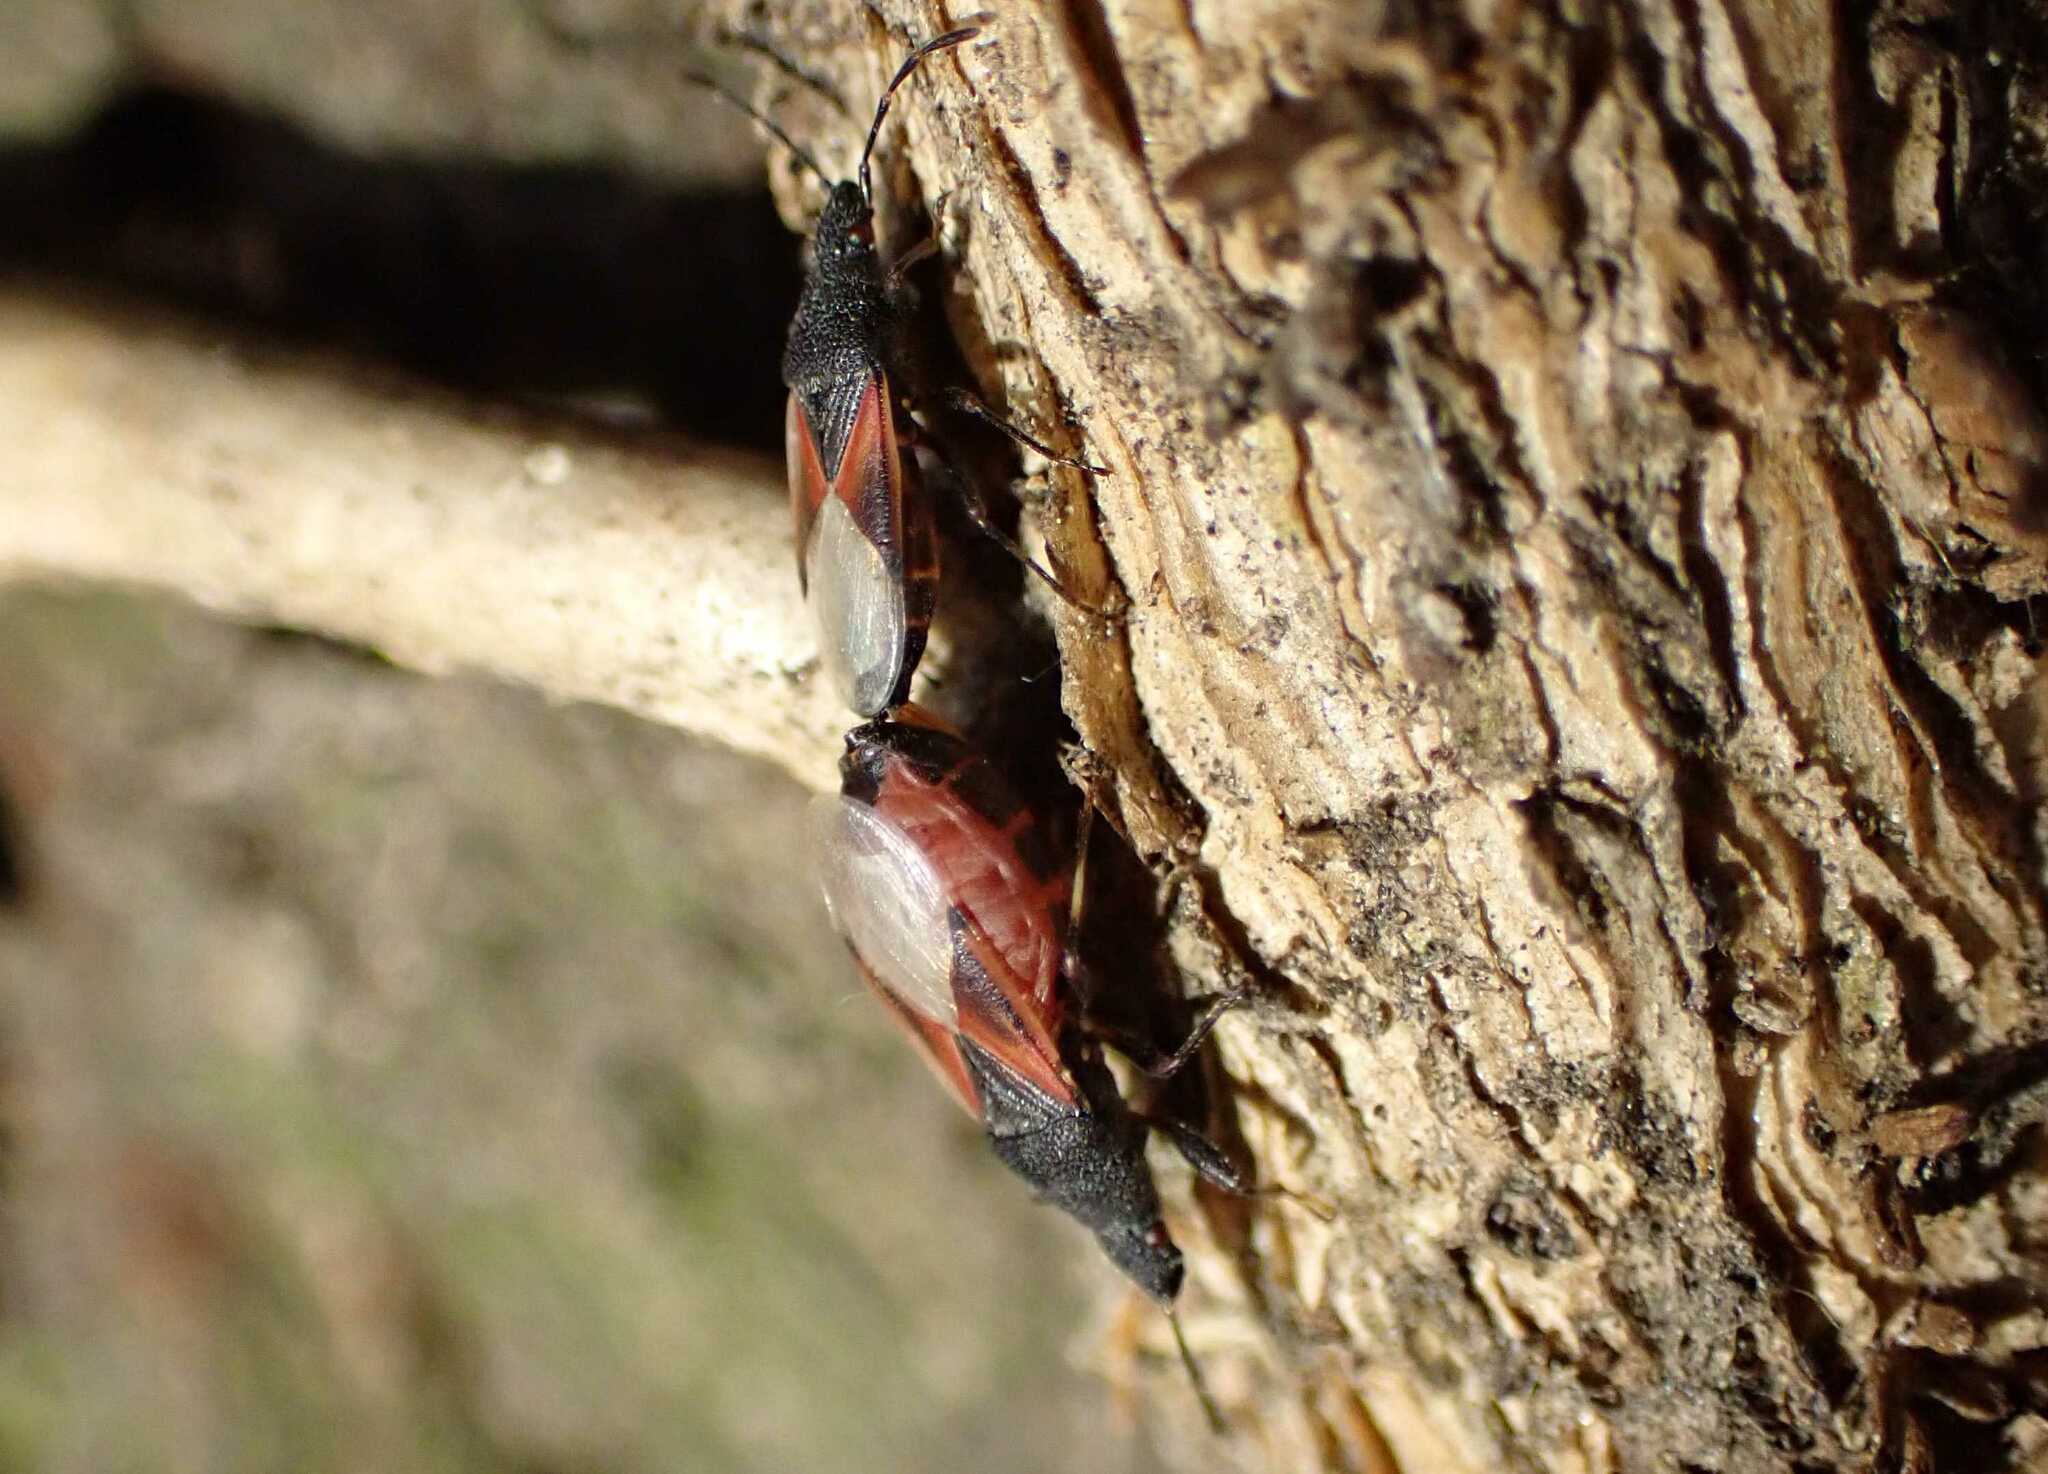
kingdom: Animalia
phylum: Arthropoda
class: Insecta
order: Hemiptera
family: Oxycarenidae
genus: Oxycarenus
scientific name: Oxycarenus lavaterae
